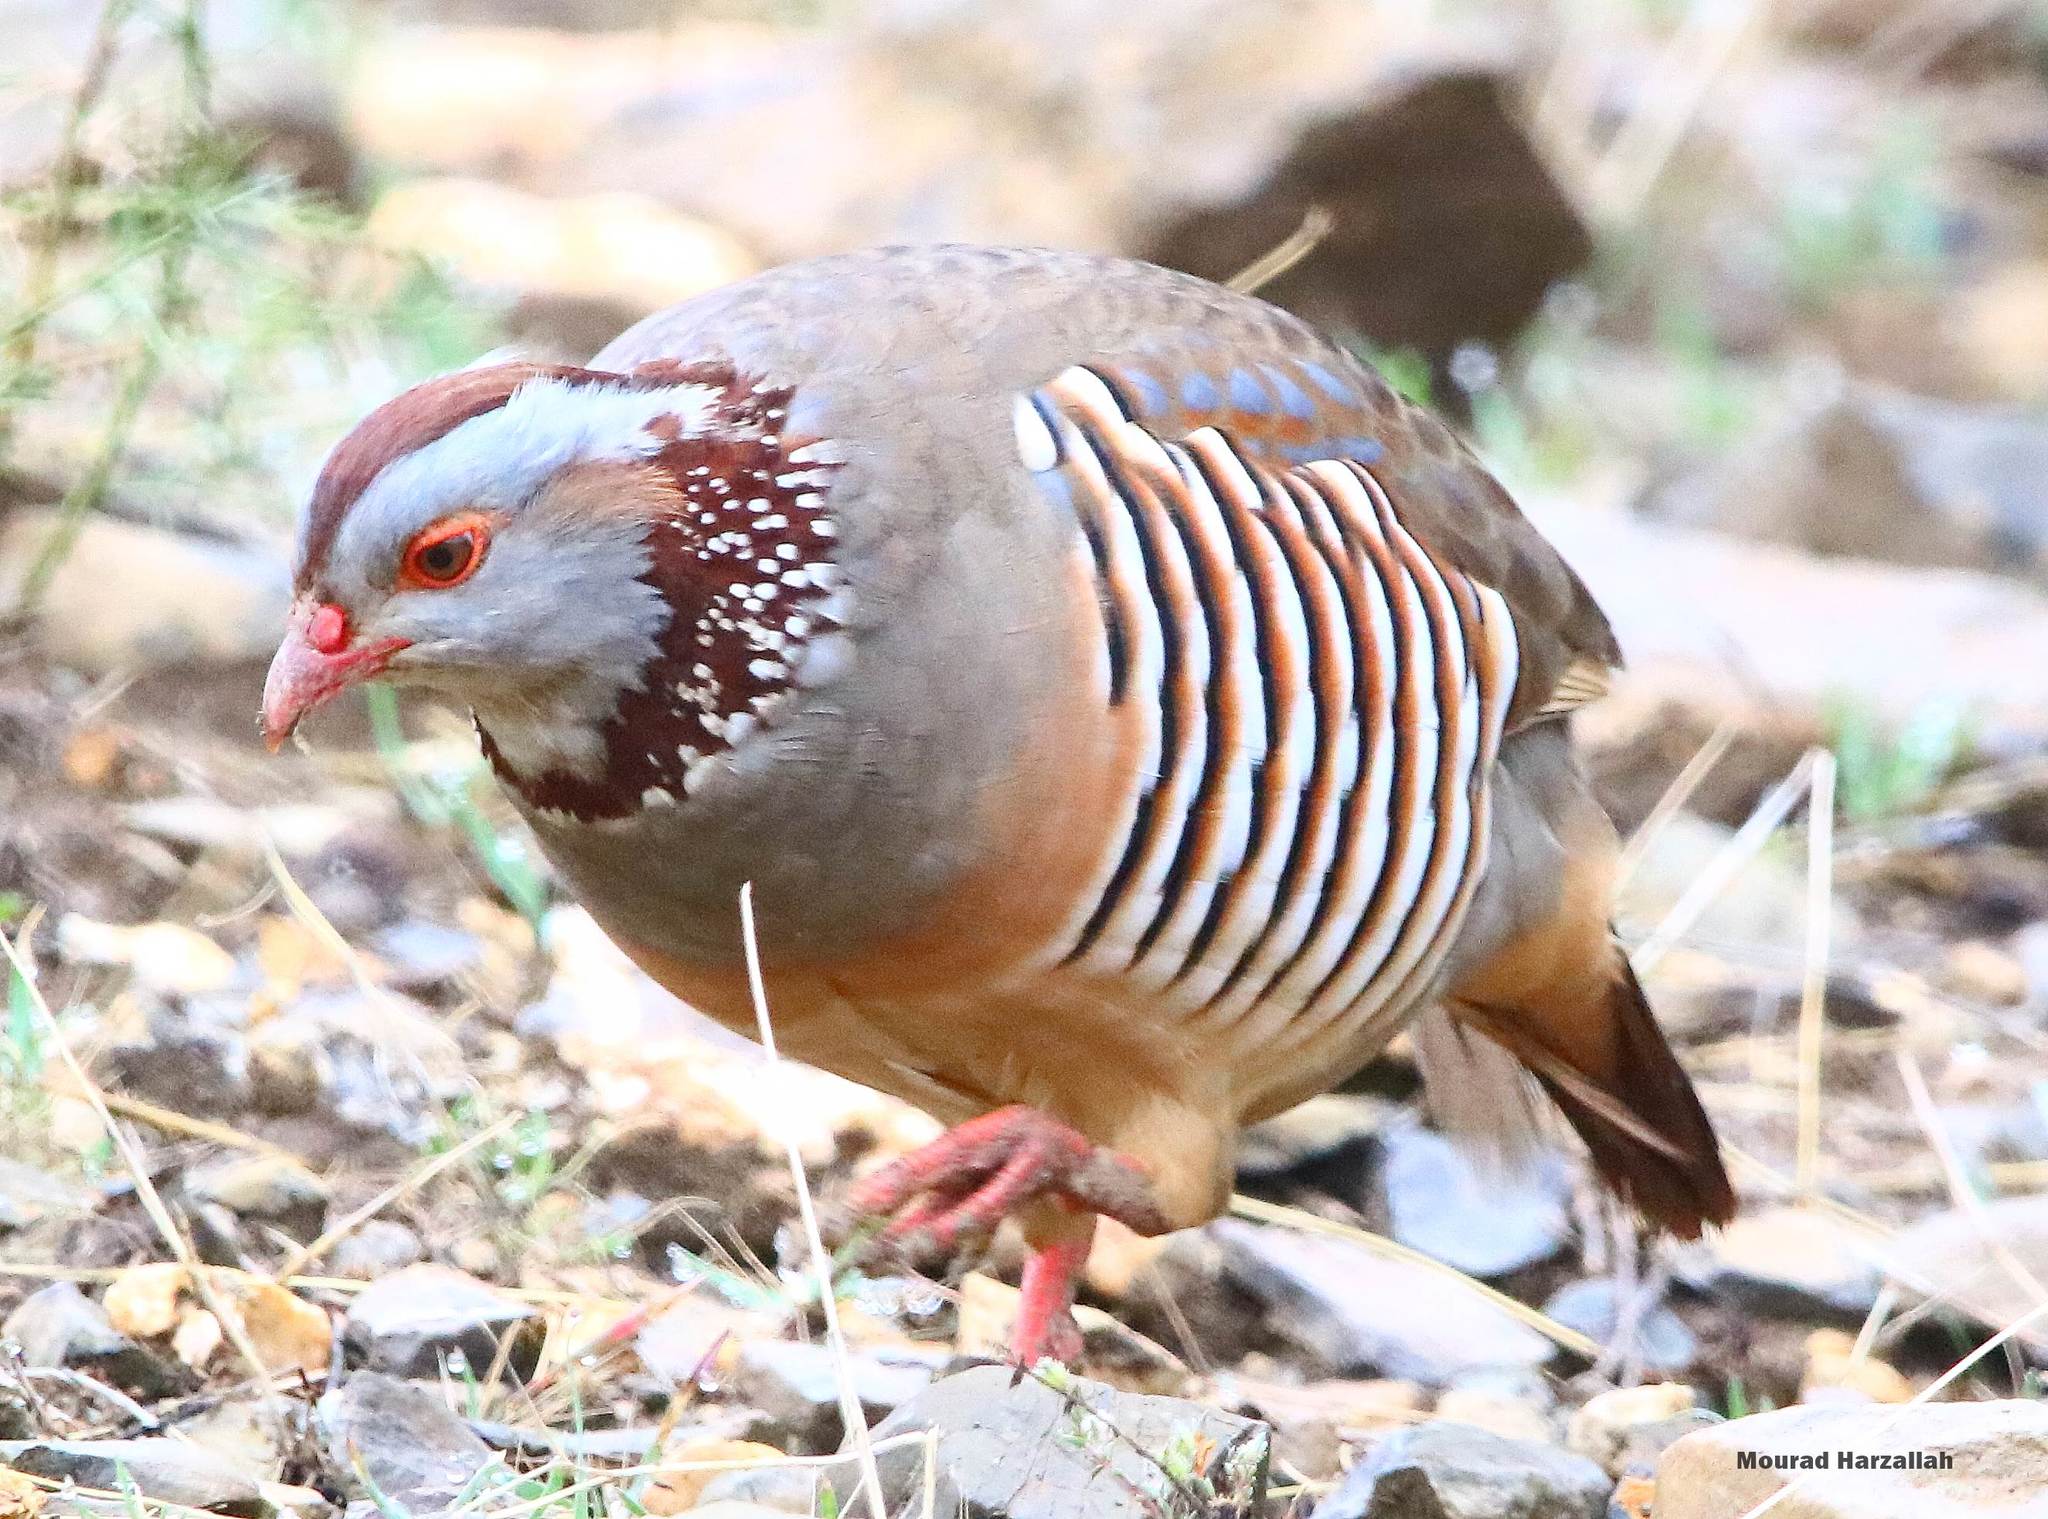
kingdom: Animalia
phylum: Chordata
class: Aves
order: Galliformes
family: Phasianidae
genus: Alectoris
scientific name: Alectoris barbara
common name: Barbary partridge
